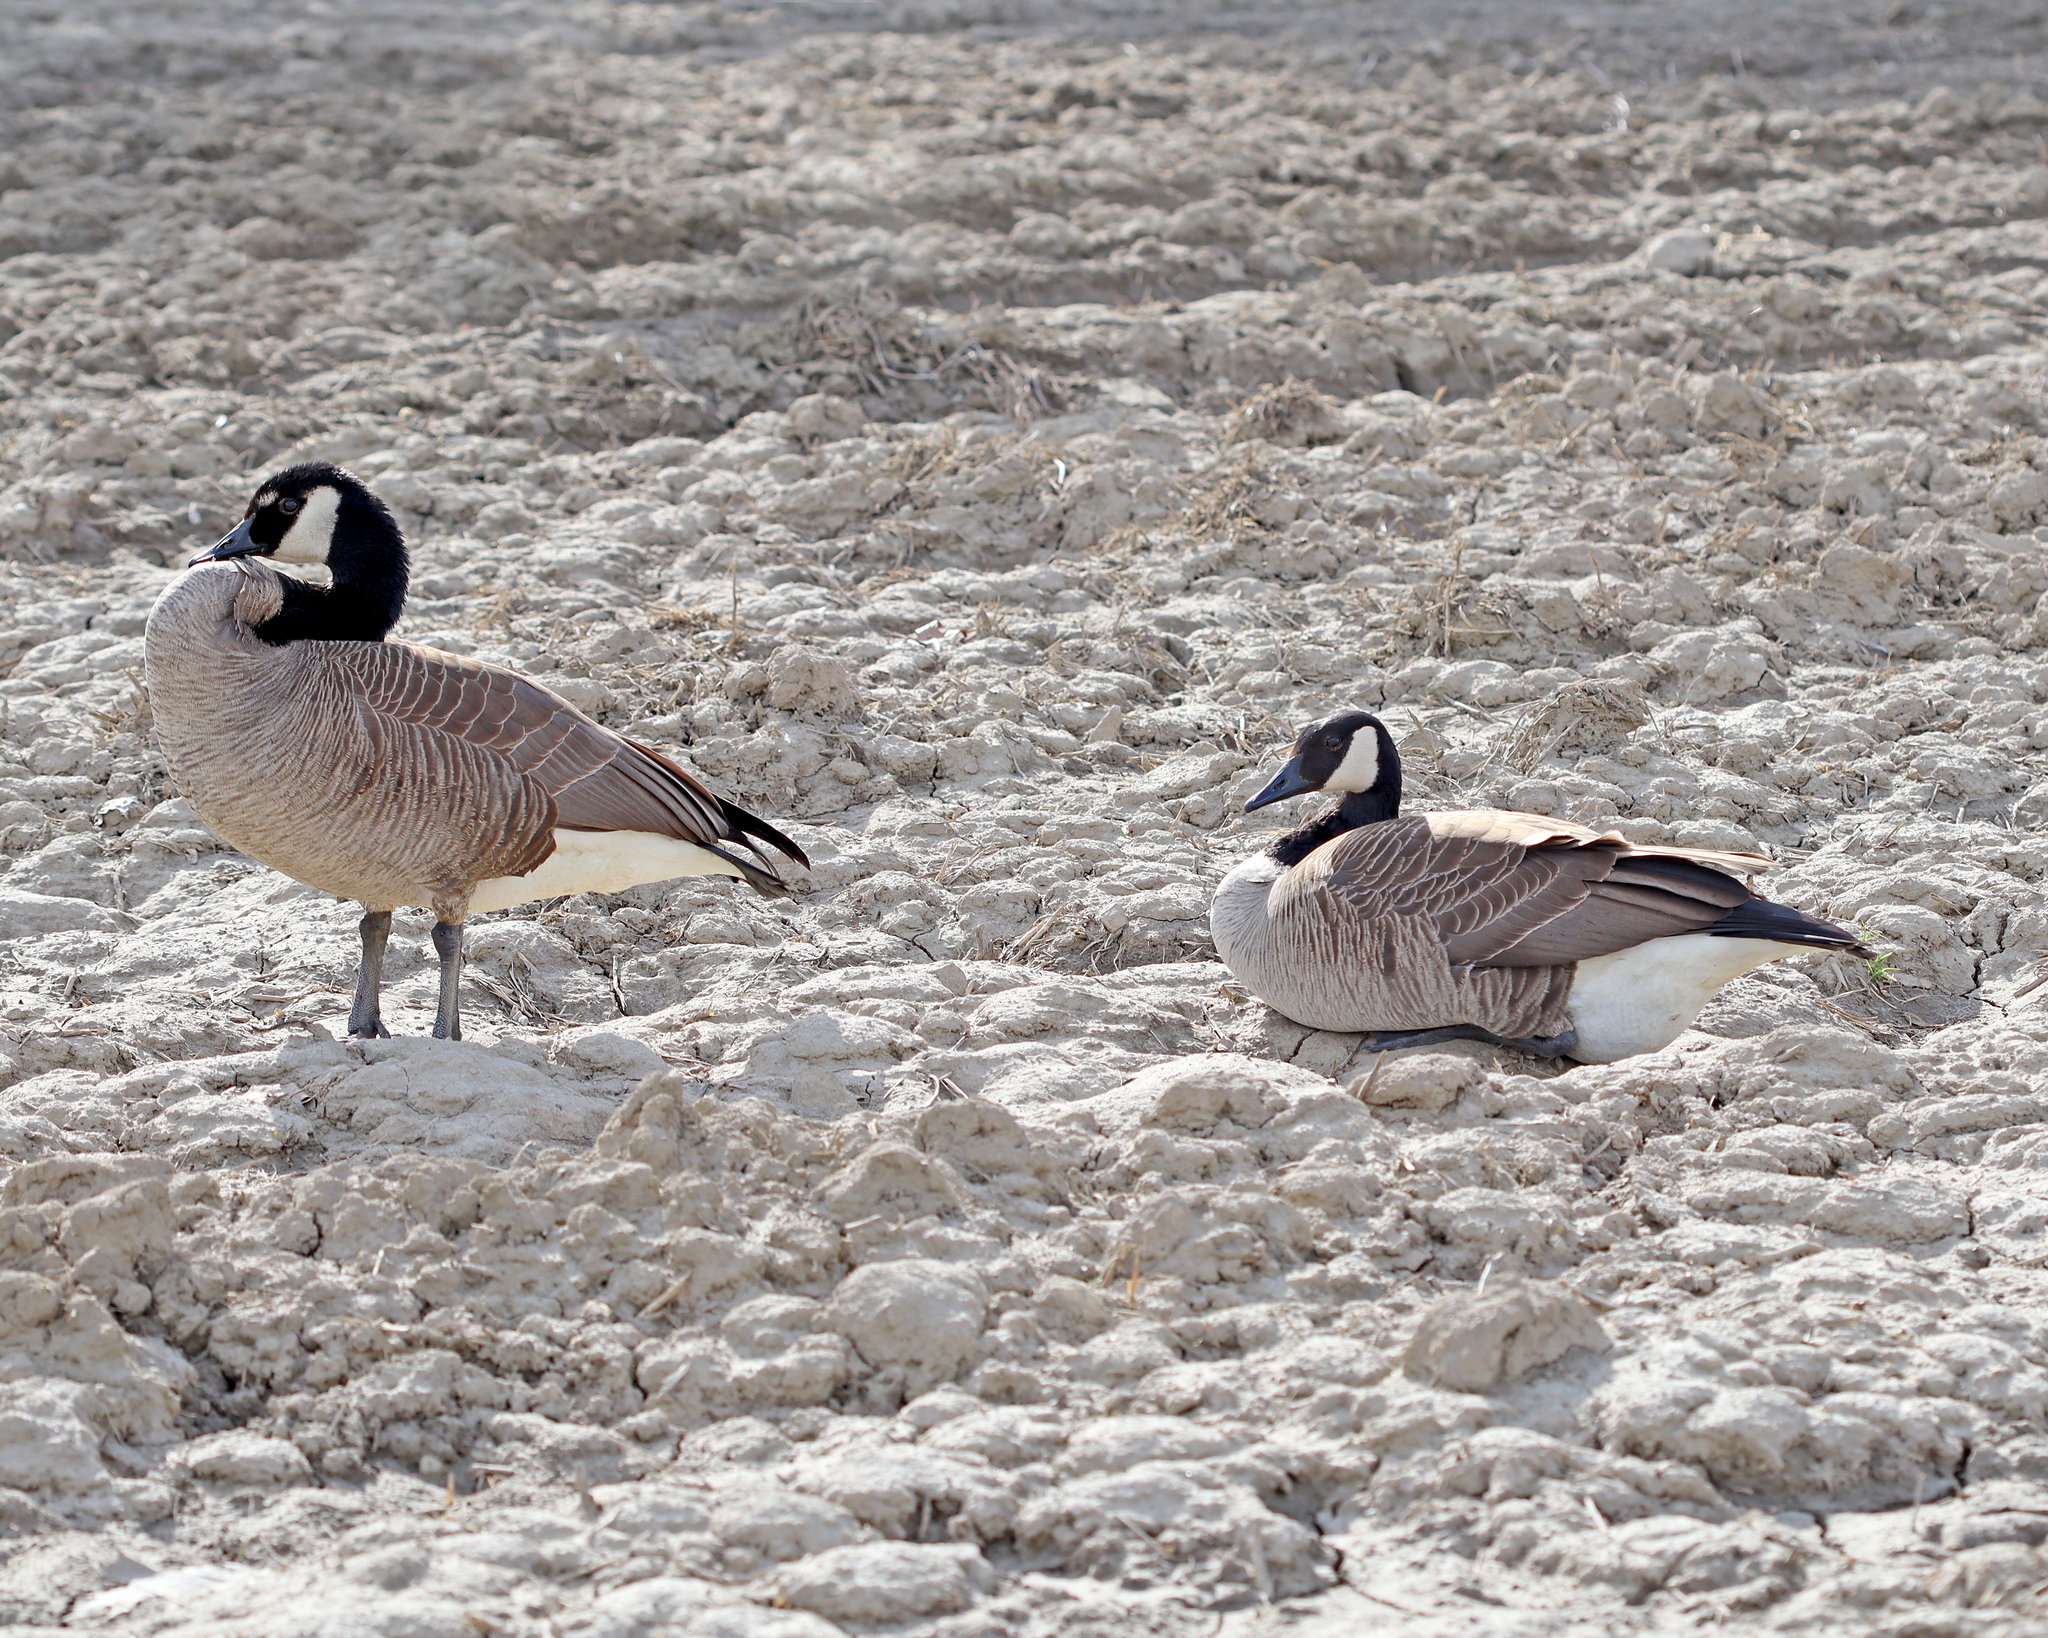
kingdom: Animalia
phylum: Chordata
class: Aves
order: Anseriformes
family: Anatidae
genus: Branta
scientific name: Branta canadensis
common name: Canada goose
